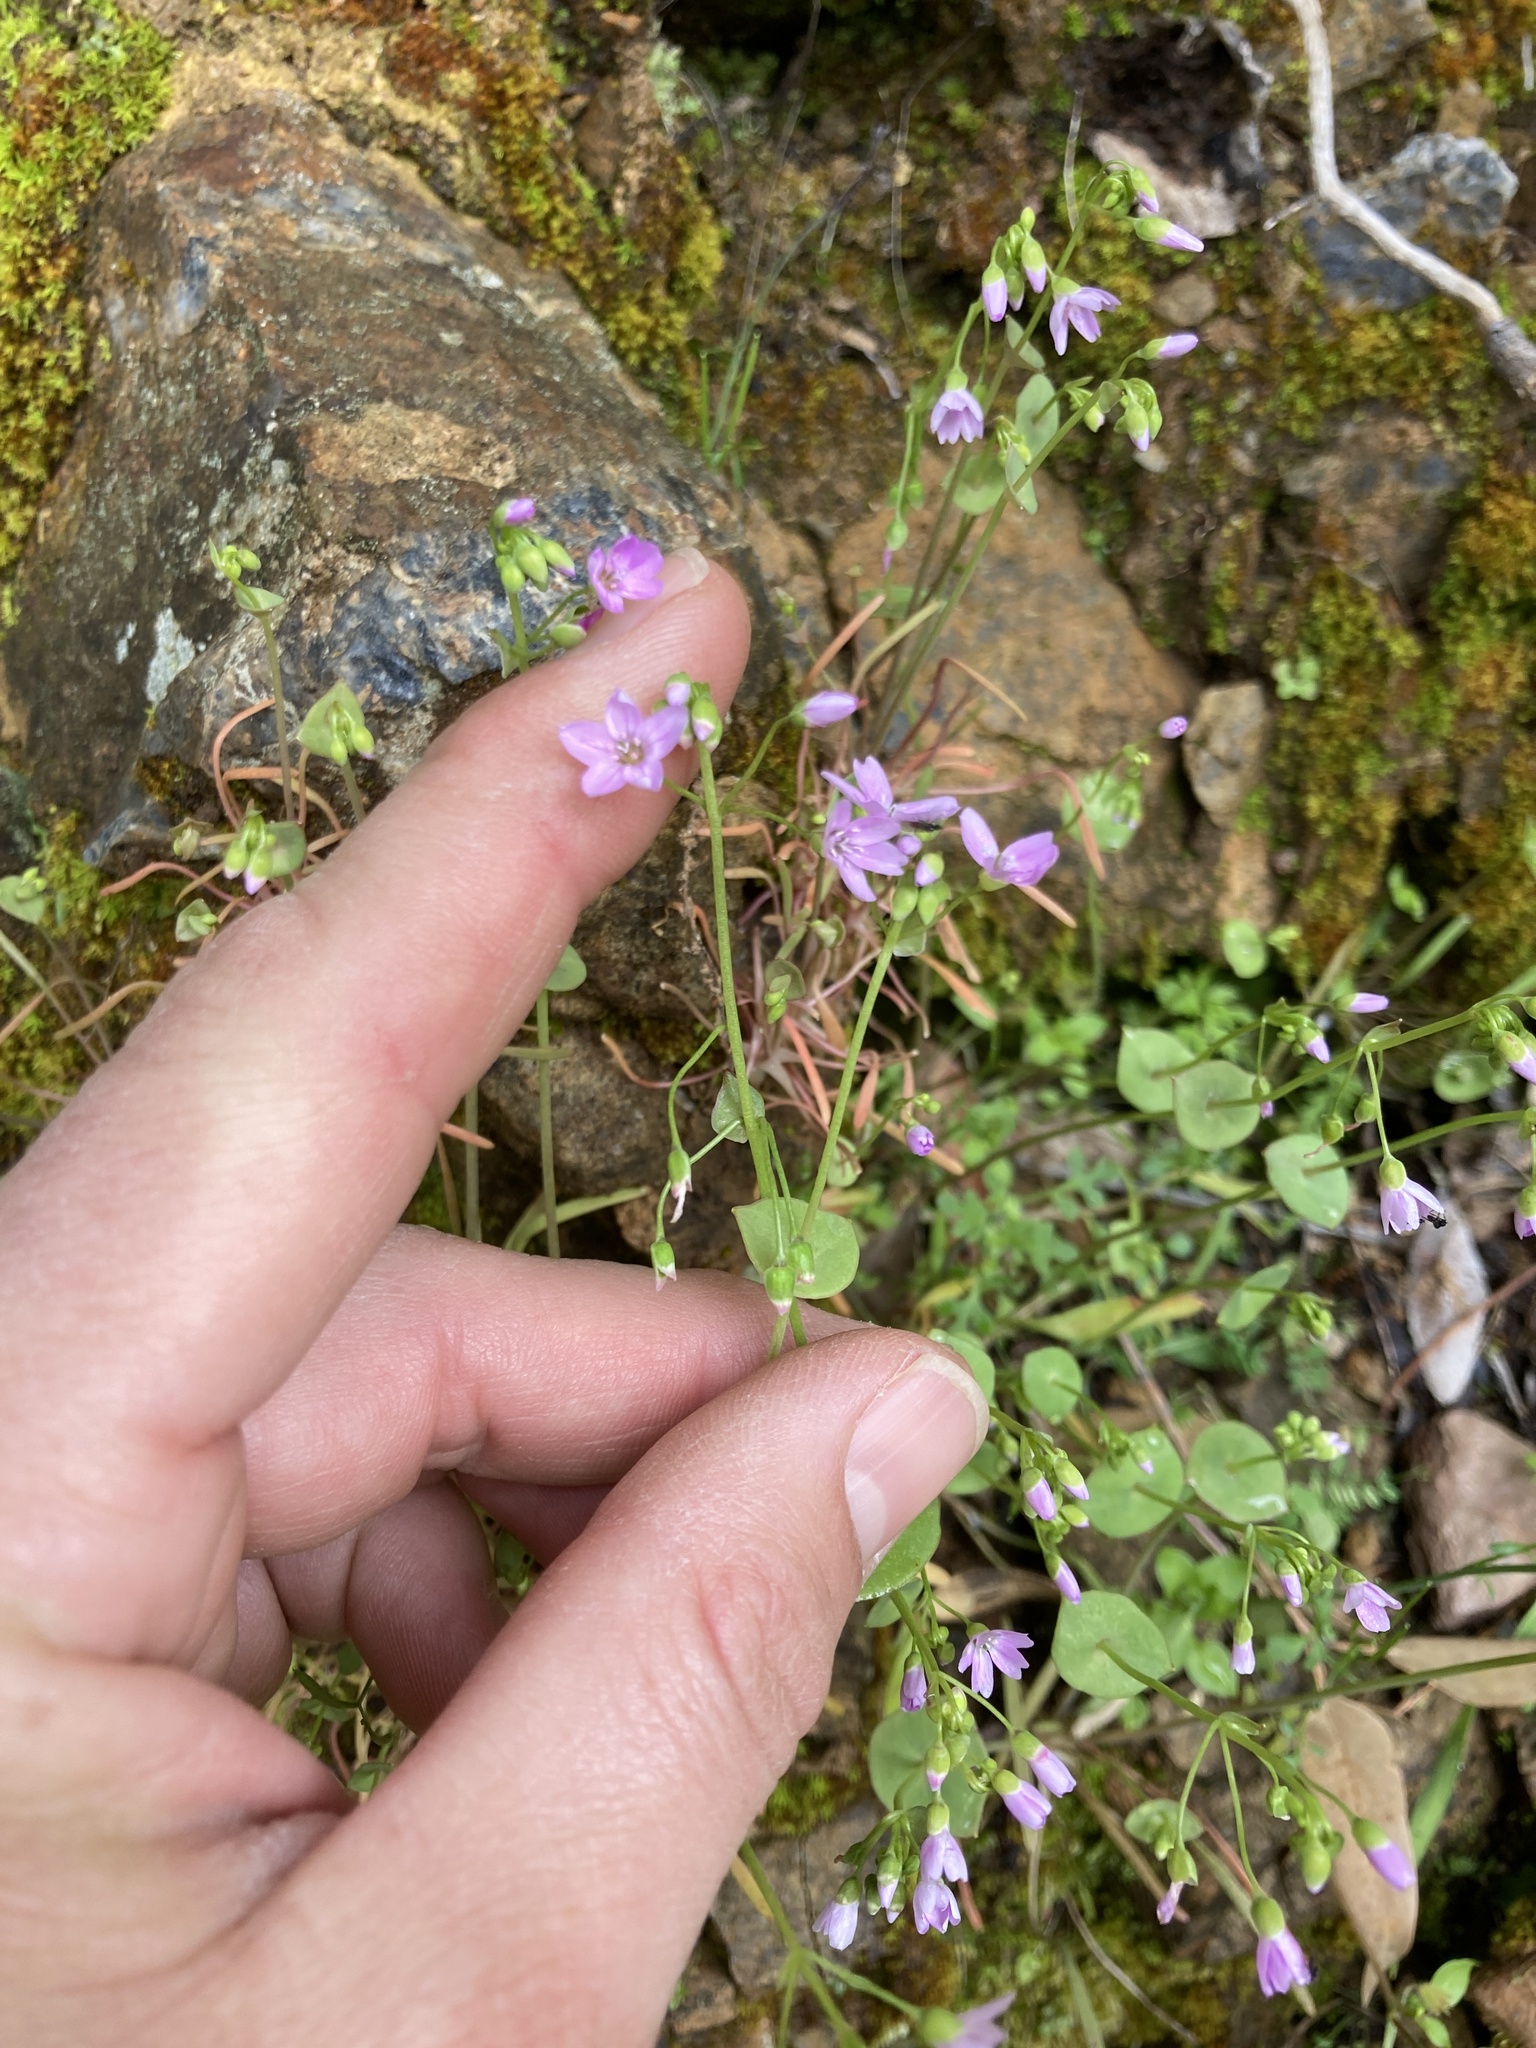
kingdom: Plantae
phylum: Tracheophyta
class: Magnoliopsida
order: Caryophyllales
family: Montiaceae
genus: Claytonia
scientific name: Claytonia parviflora
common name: Indian-lettuce
